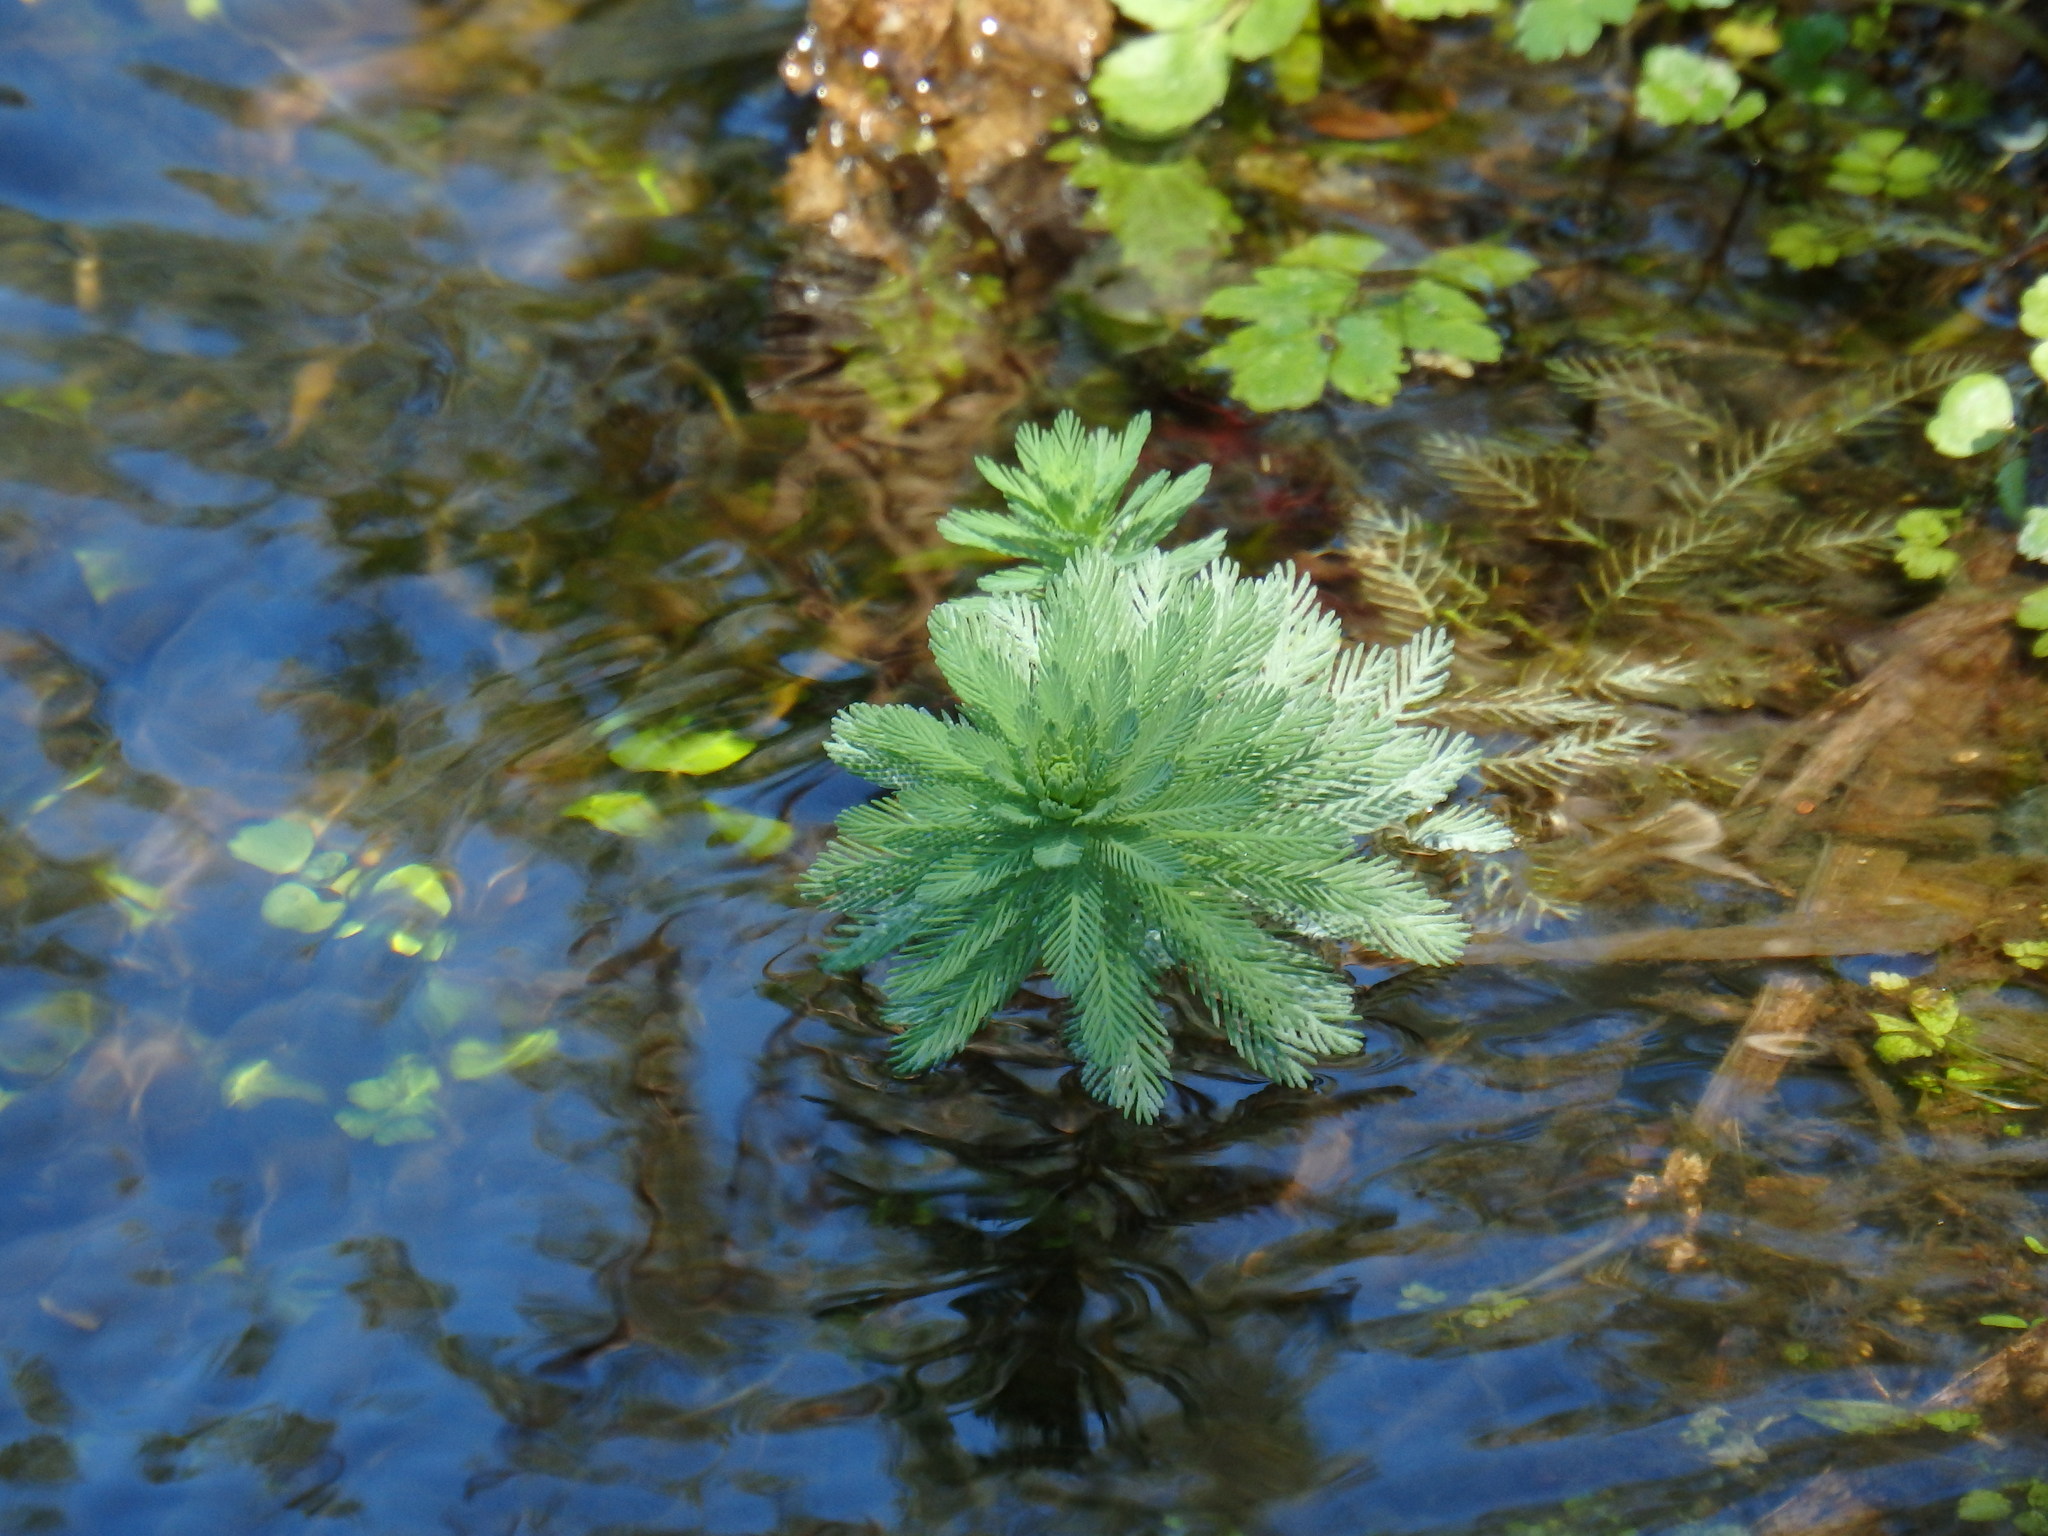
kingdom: Plantae
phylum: Tracheophyta
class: Magnoliopsida
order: Saxifragales
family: Haloragaceae
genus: Myriophyllum
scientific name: Myriophyllum aquaticum
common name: Parrot's feather
